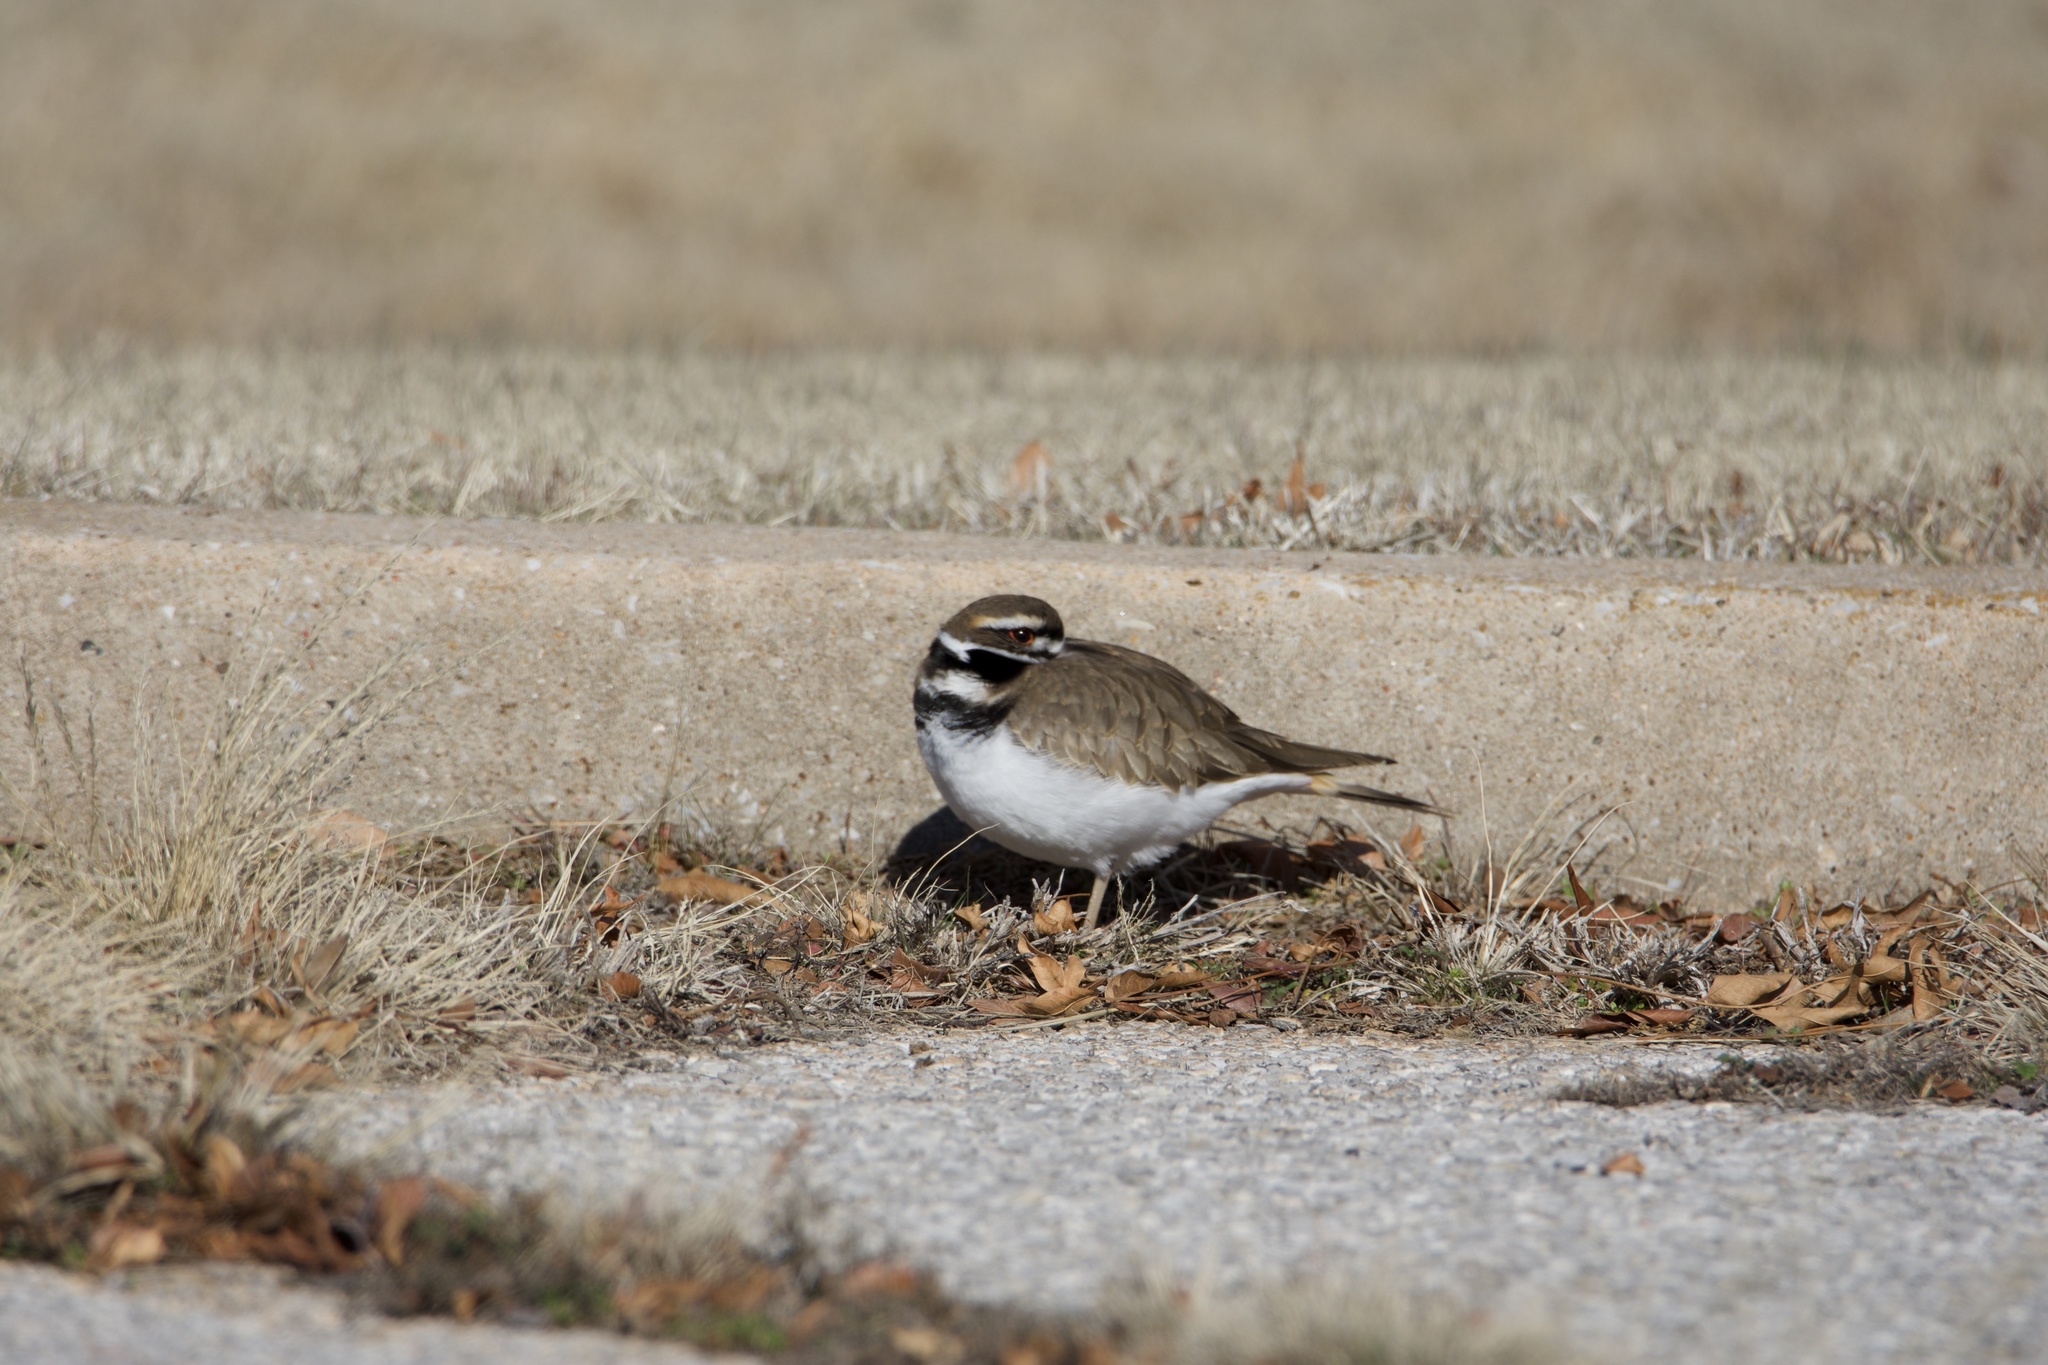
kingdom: Animalia
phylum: Chordata
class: Aves
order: Charadriiformes
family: Charadriidae
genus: Charadrius
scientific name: Charadrius vociferus
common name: Killdeer
